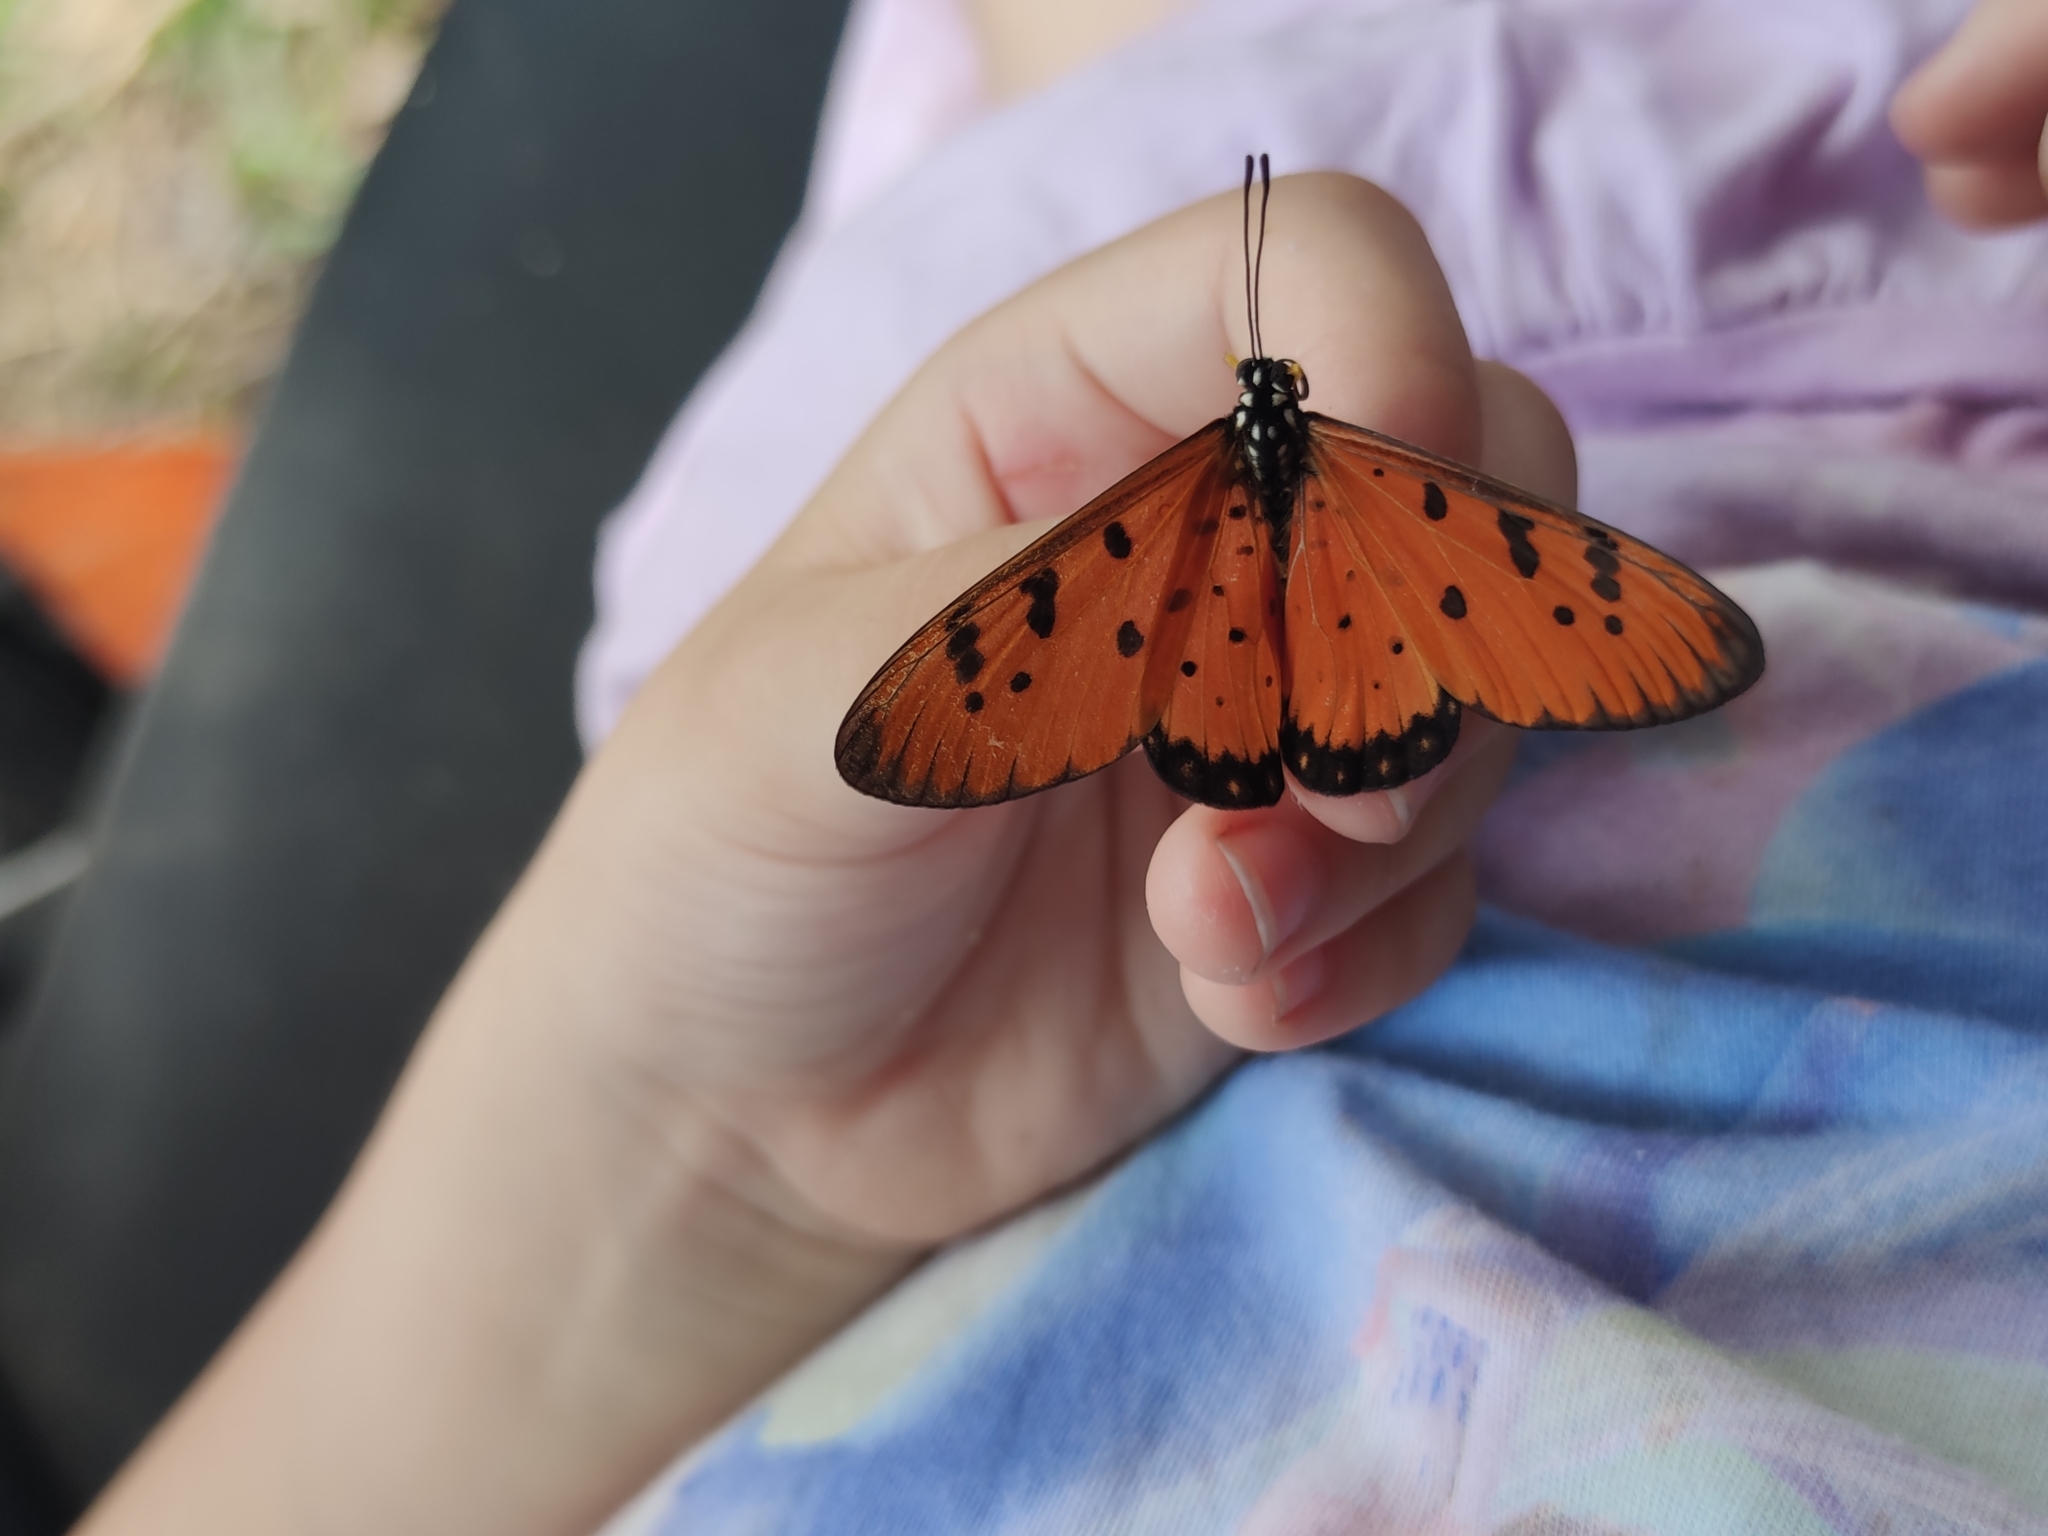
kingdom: Animalia
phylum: Arthropoda
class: Insecta
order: Lepidoptera
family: Nymphalidae
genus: Acraea
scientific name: Acraea terpsicore
